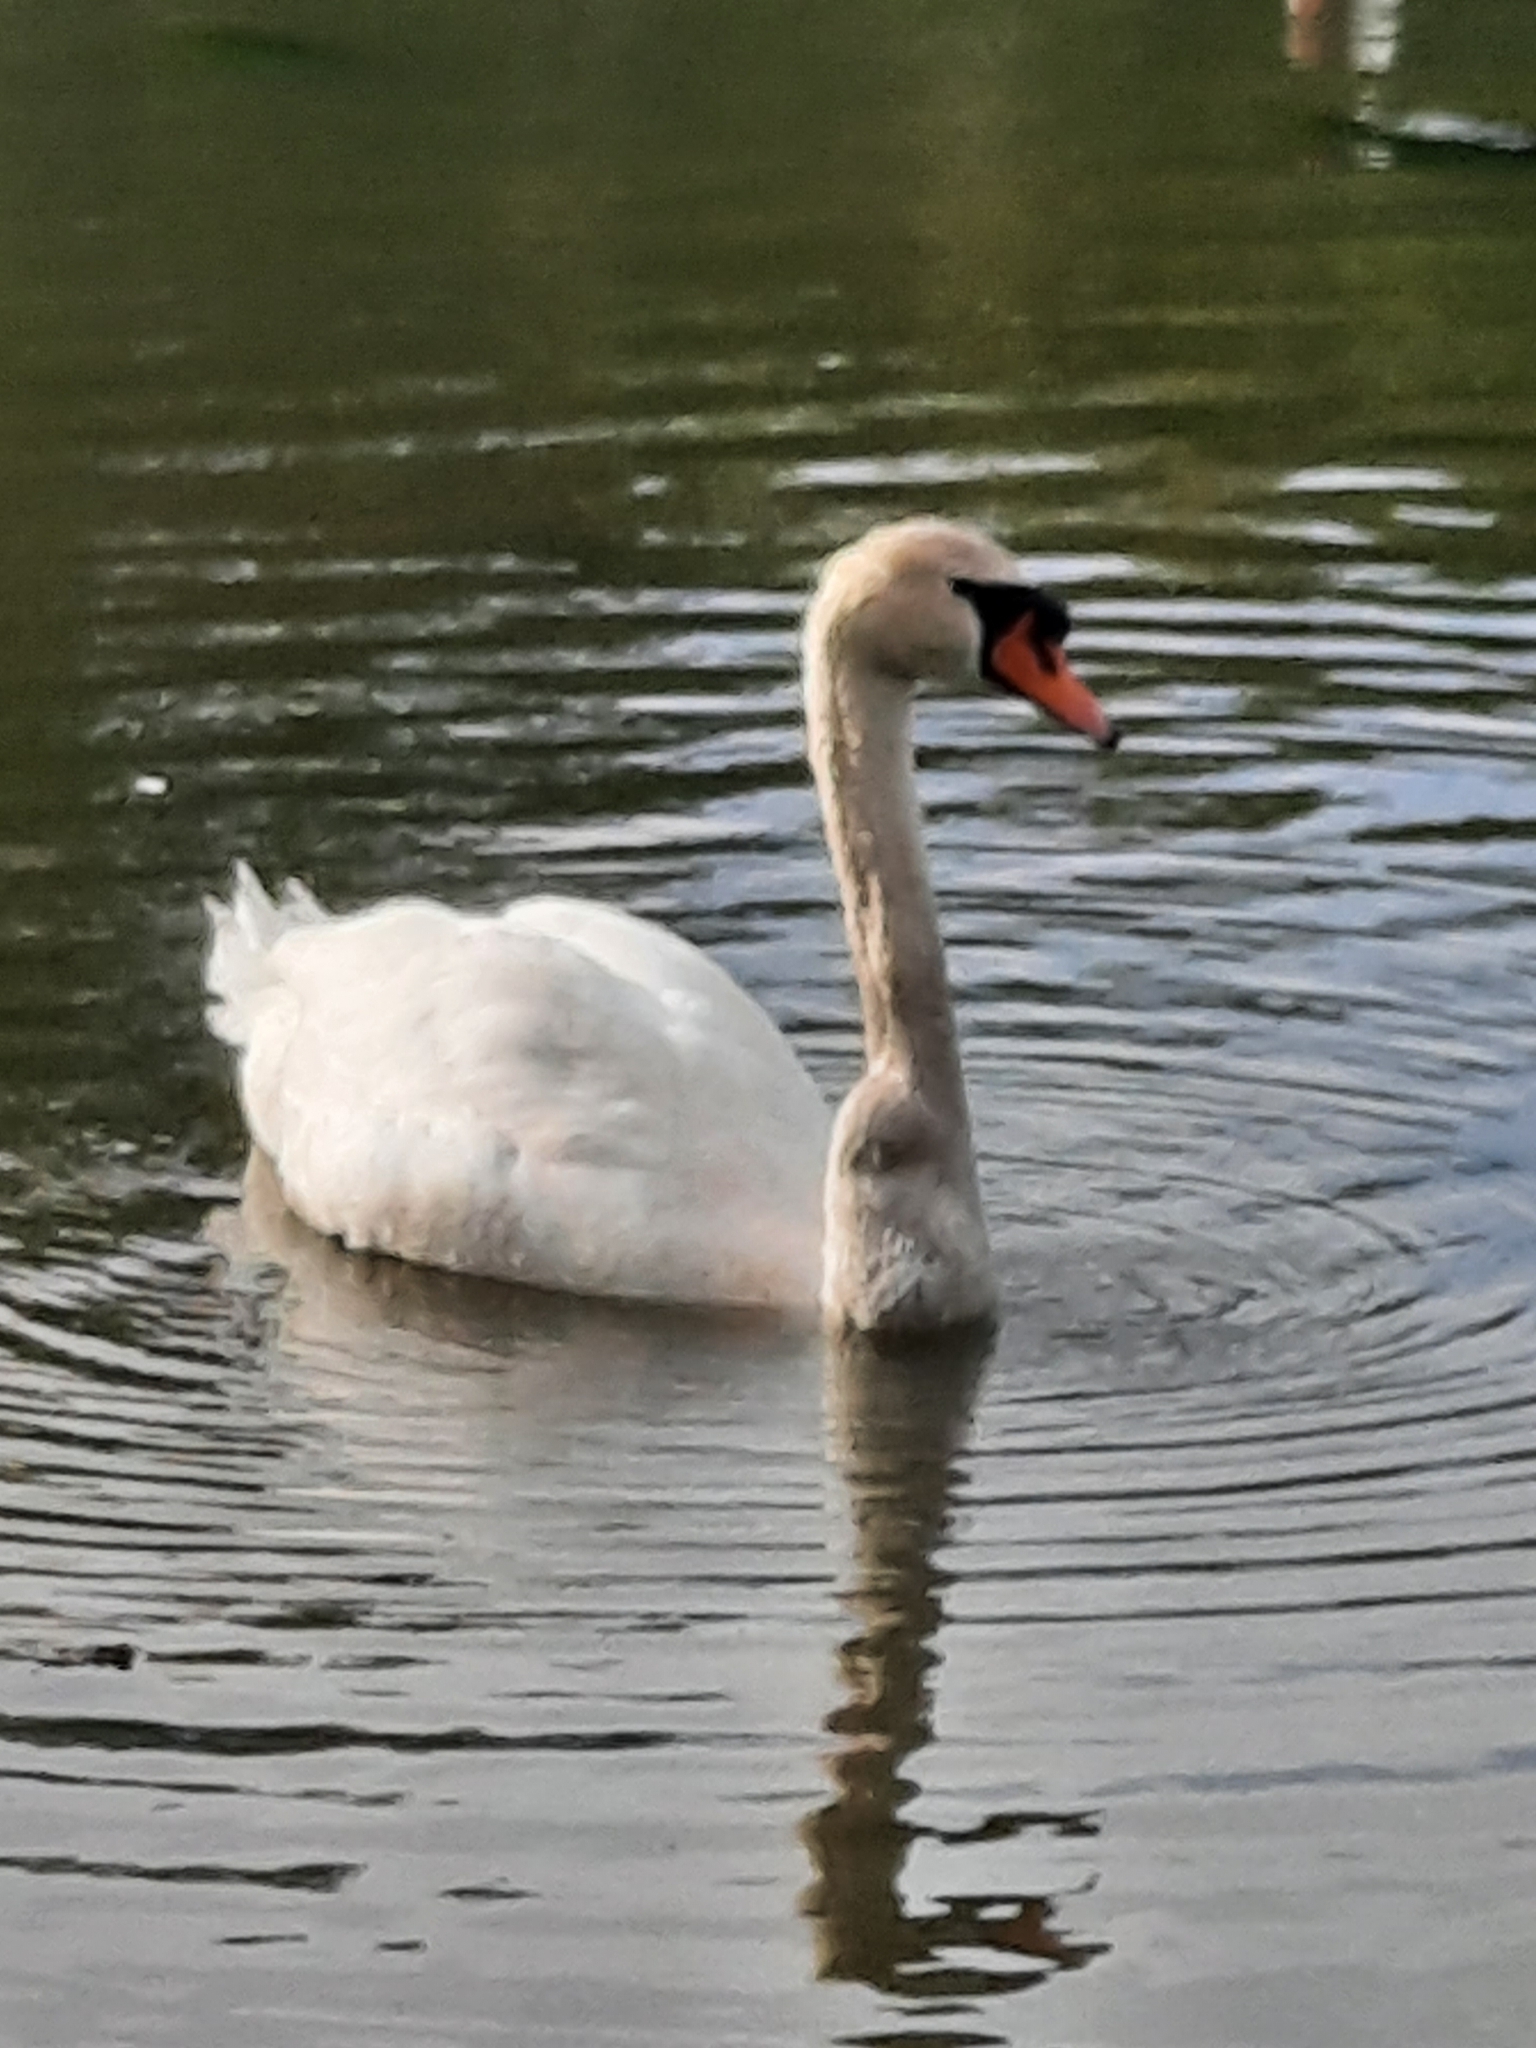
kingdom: Animalia
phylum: Chordata
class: Aves
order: Anseriformes
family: Anatidae
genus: Cygnus
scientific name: Cygnus olor
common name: Mute swan
